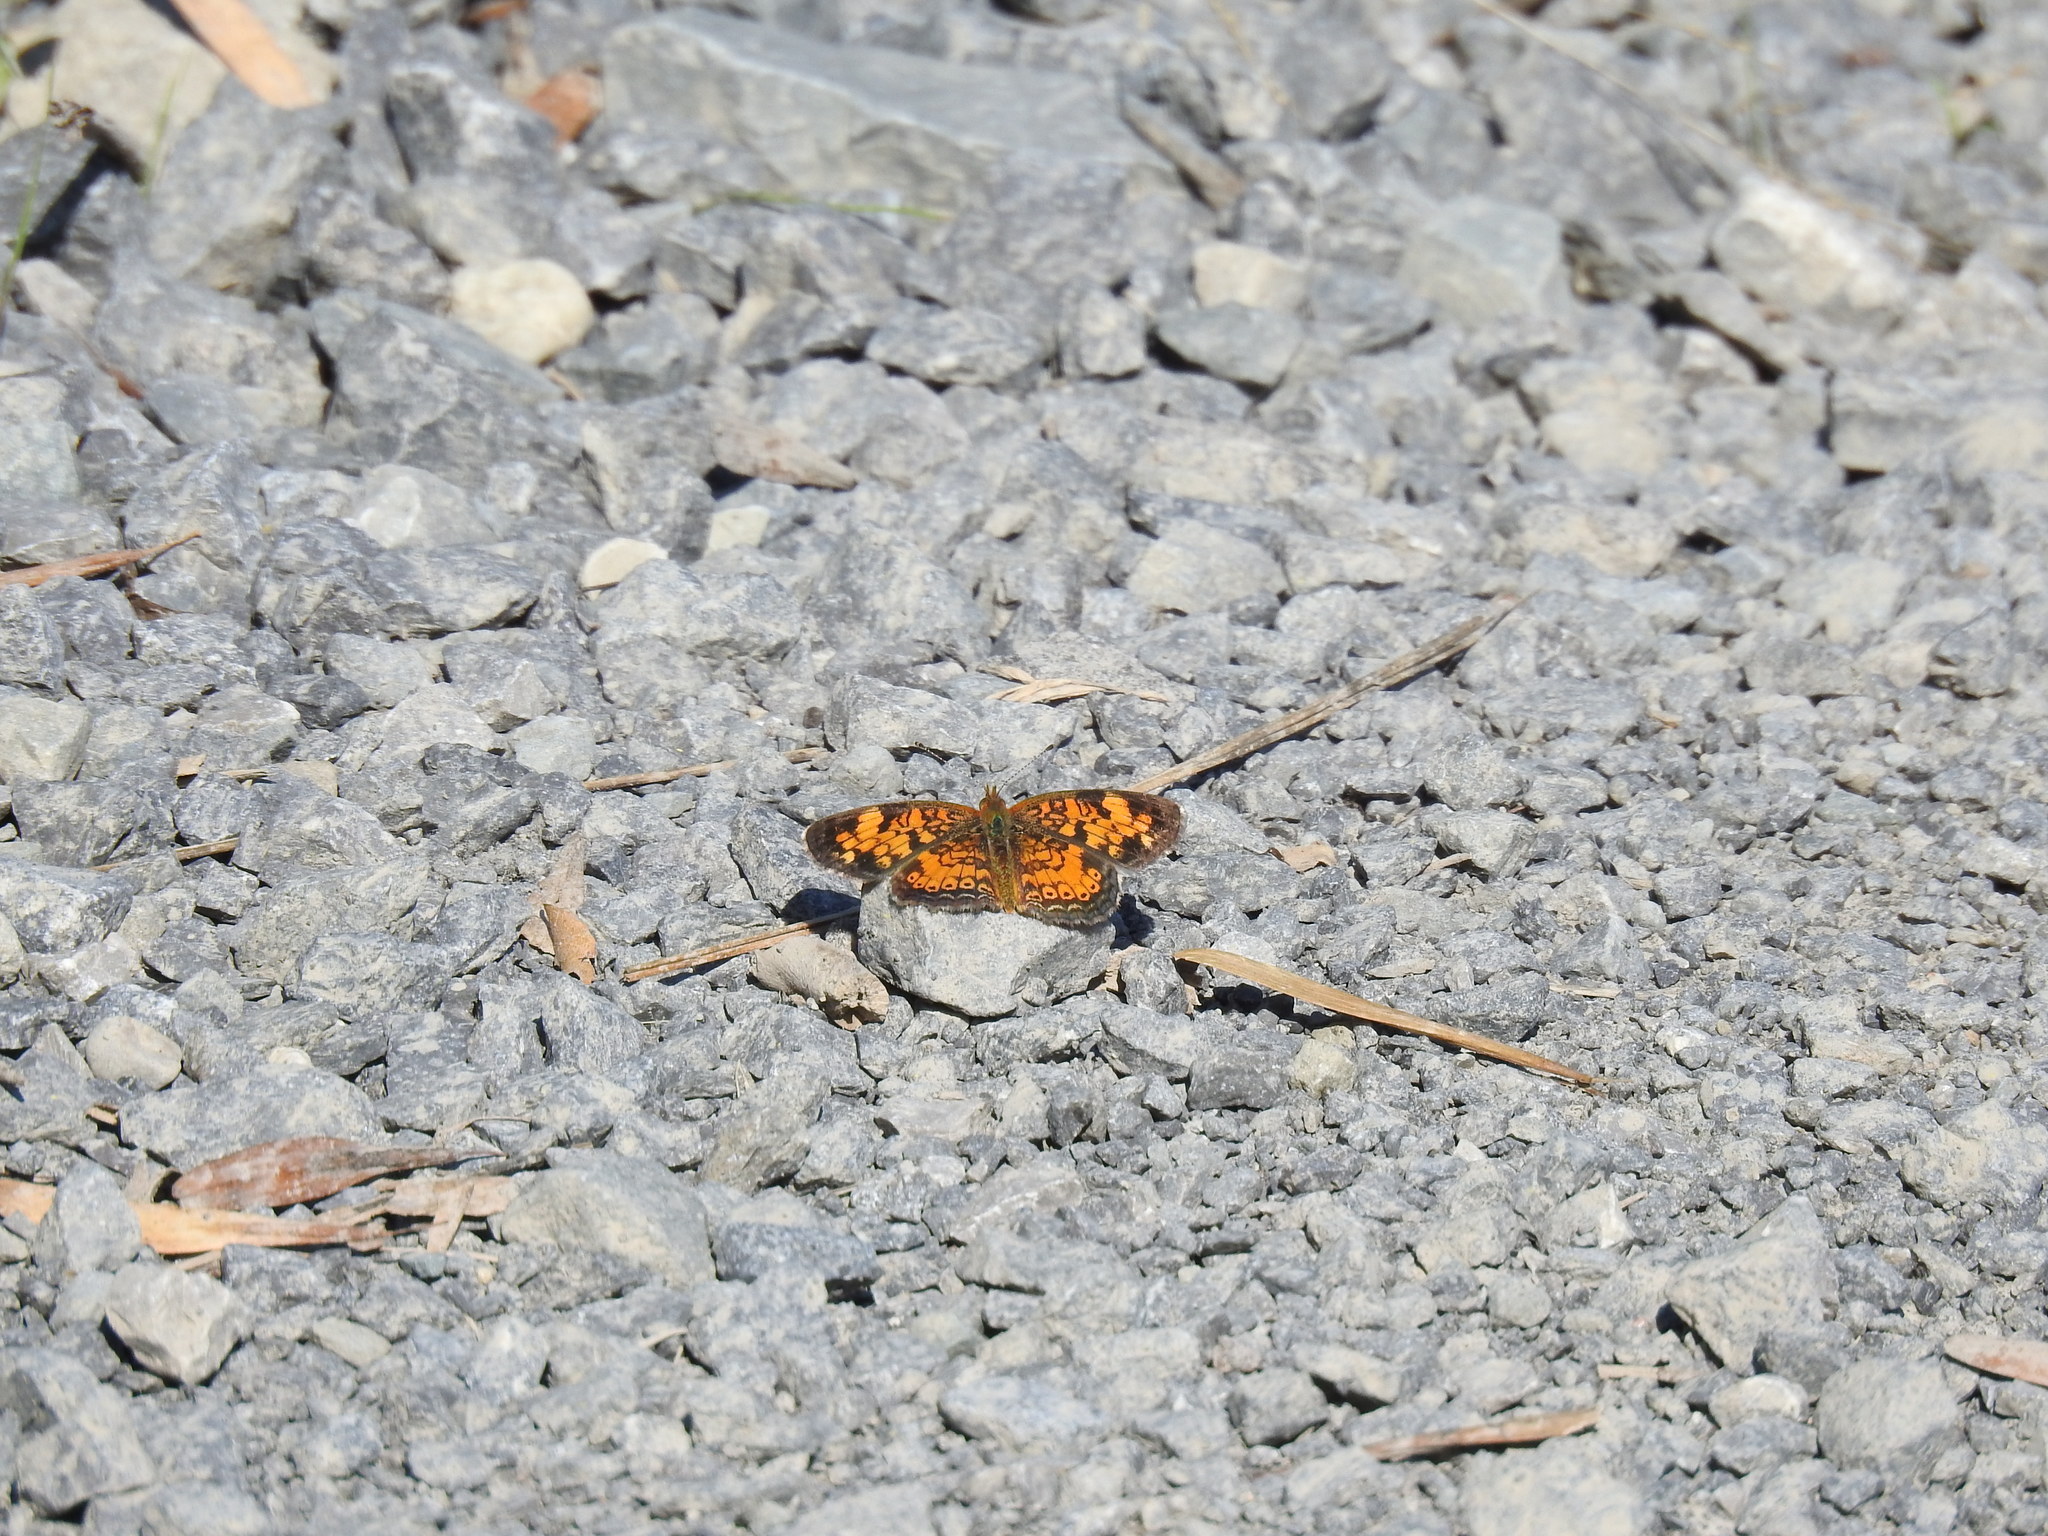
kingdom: Animalia
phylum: Arthropoda
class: Insecta
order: Lepidoptera
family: Nymphalidae
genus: Phyciodes
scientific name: Phyciodes tharos
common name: Pearl crescent
